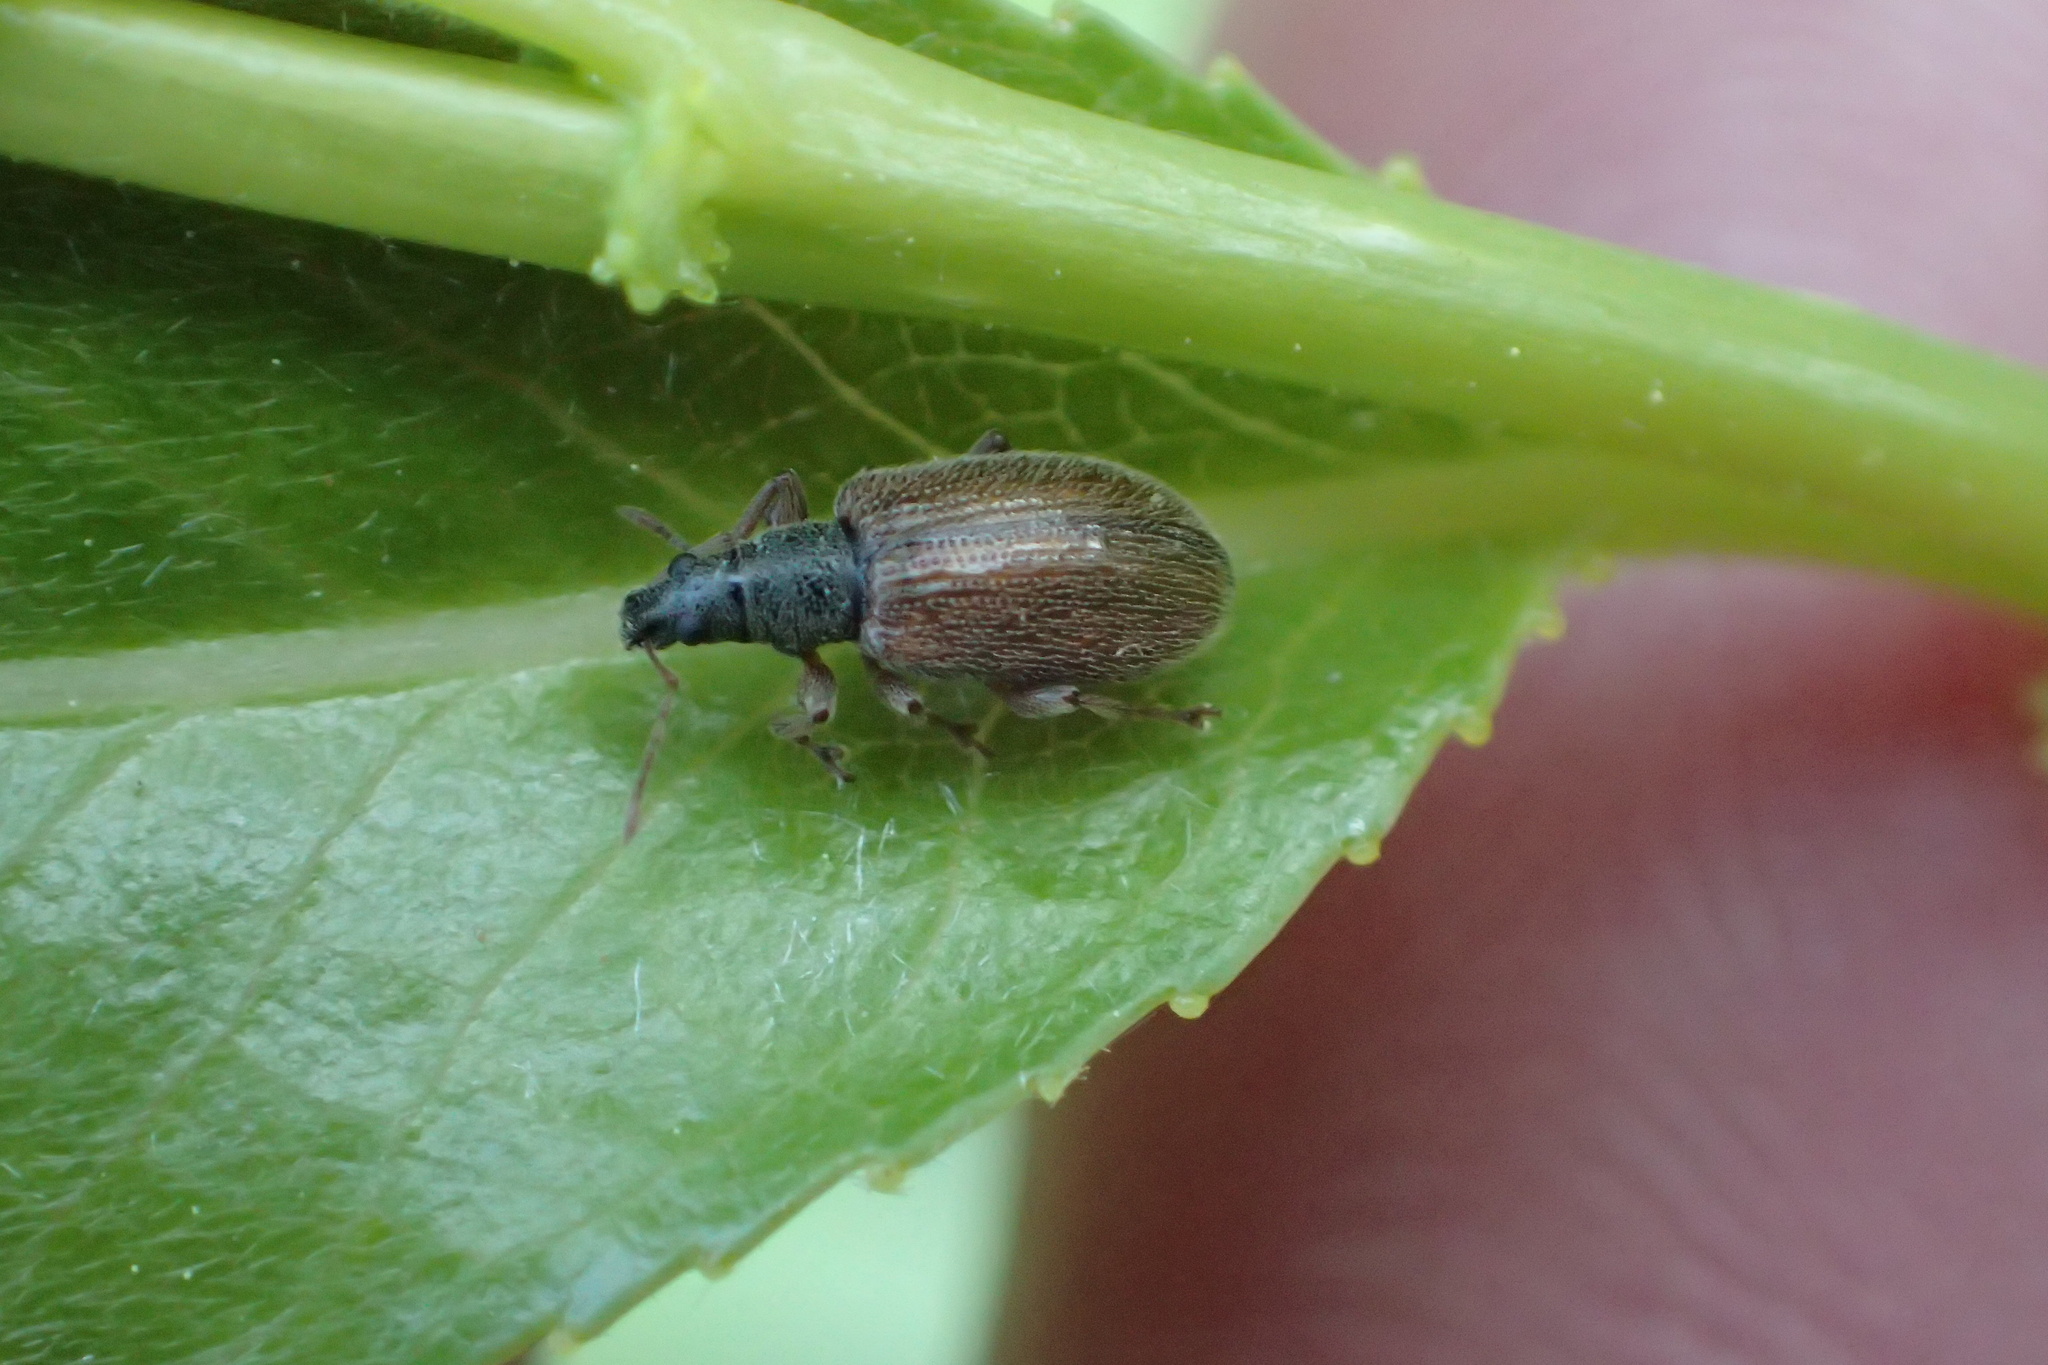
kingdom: Animalia
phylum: Arthropoda
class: Insecta
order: Coleoptera
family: Curculionidae
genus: Phyllobius
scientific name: Phyllobius oblongus
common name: Brown leaf weevil
